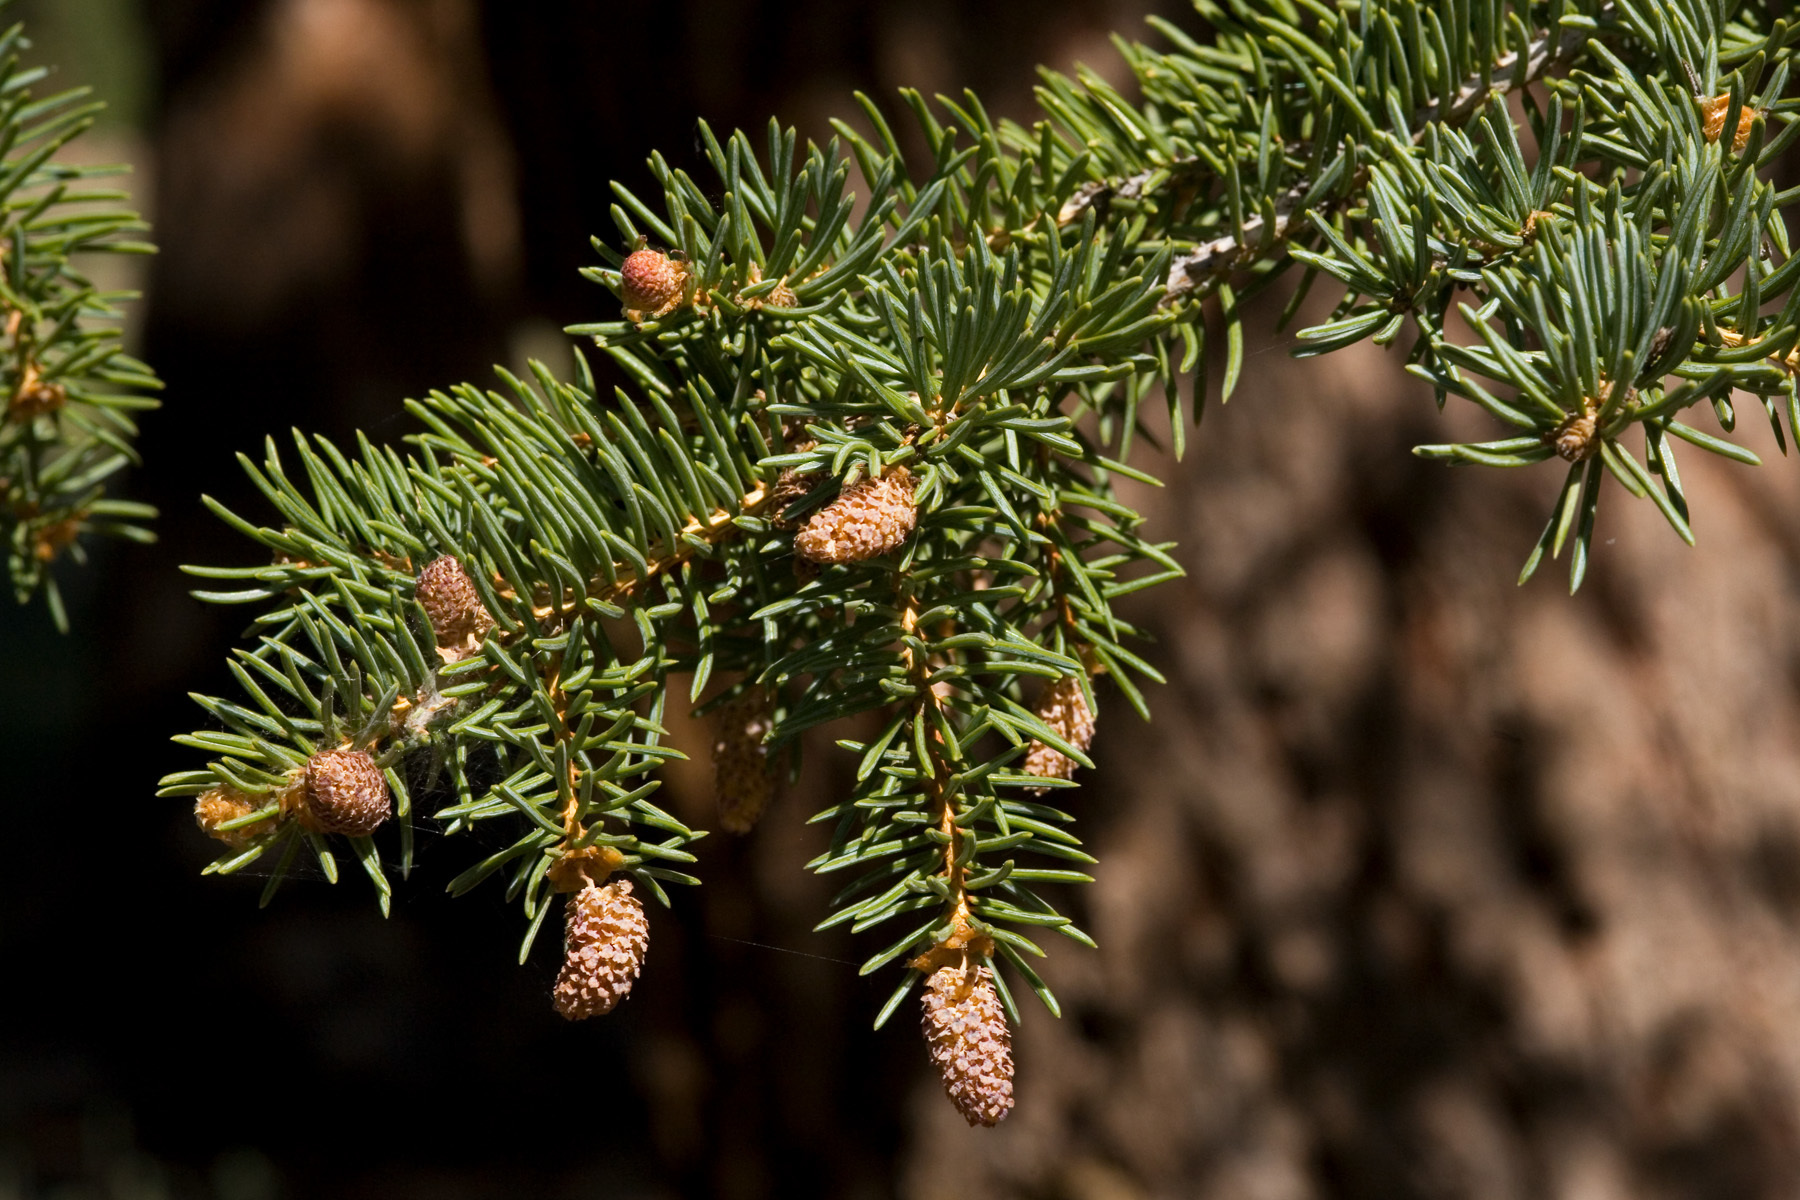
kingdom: Plantae
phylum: Tracheophyta
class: Pinopsida
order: Pinales
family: Pinaceae
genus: Picea
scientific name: Picea pungens
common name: Colorado spruce
